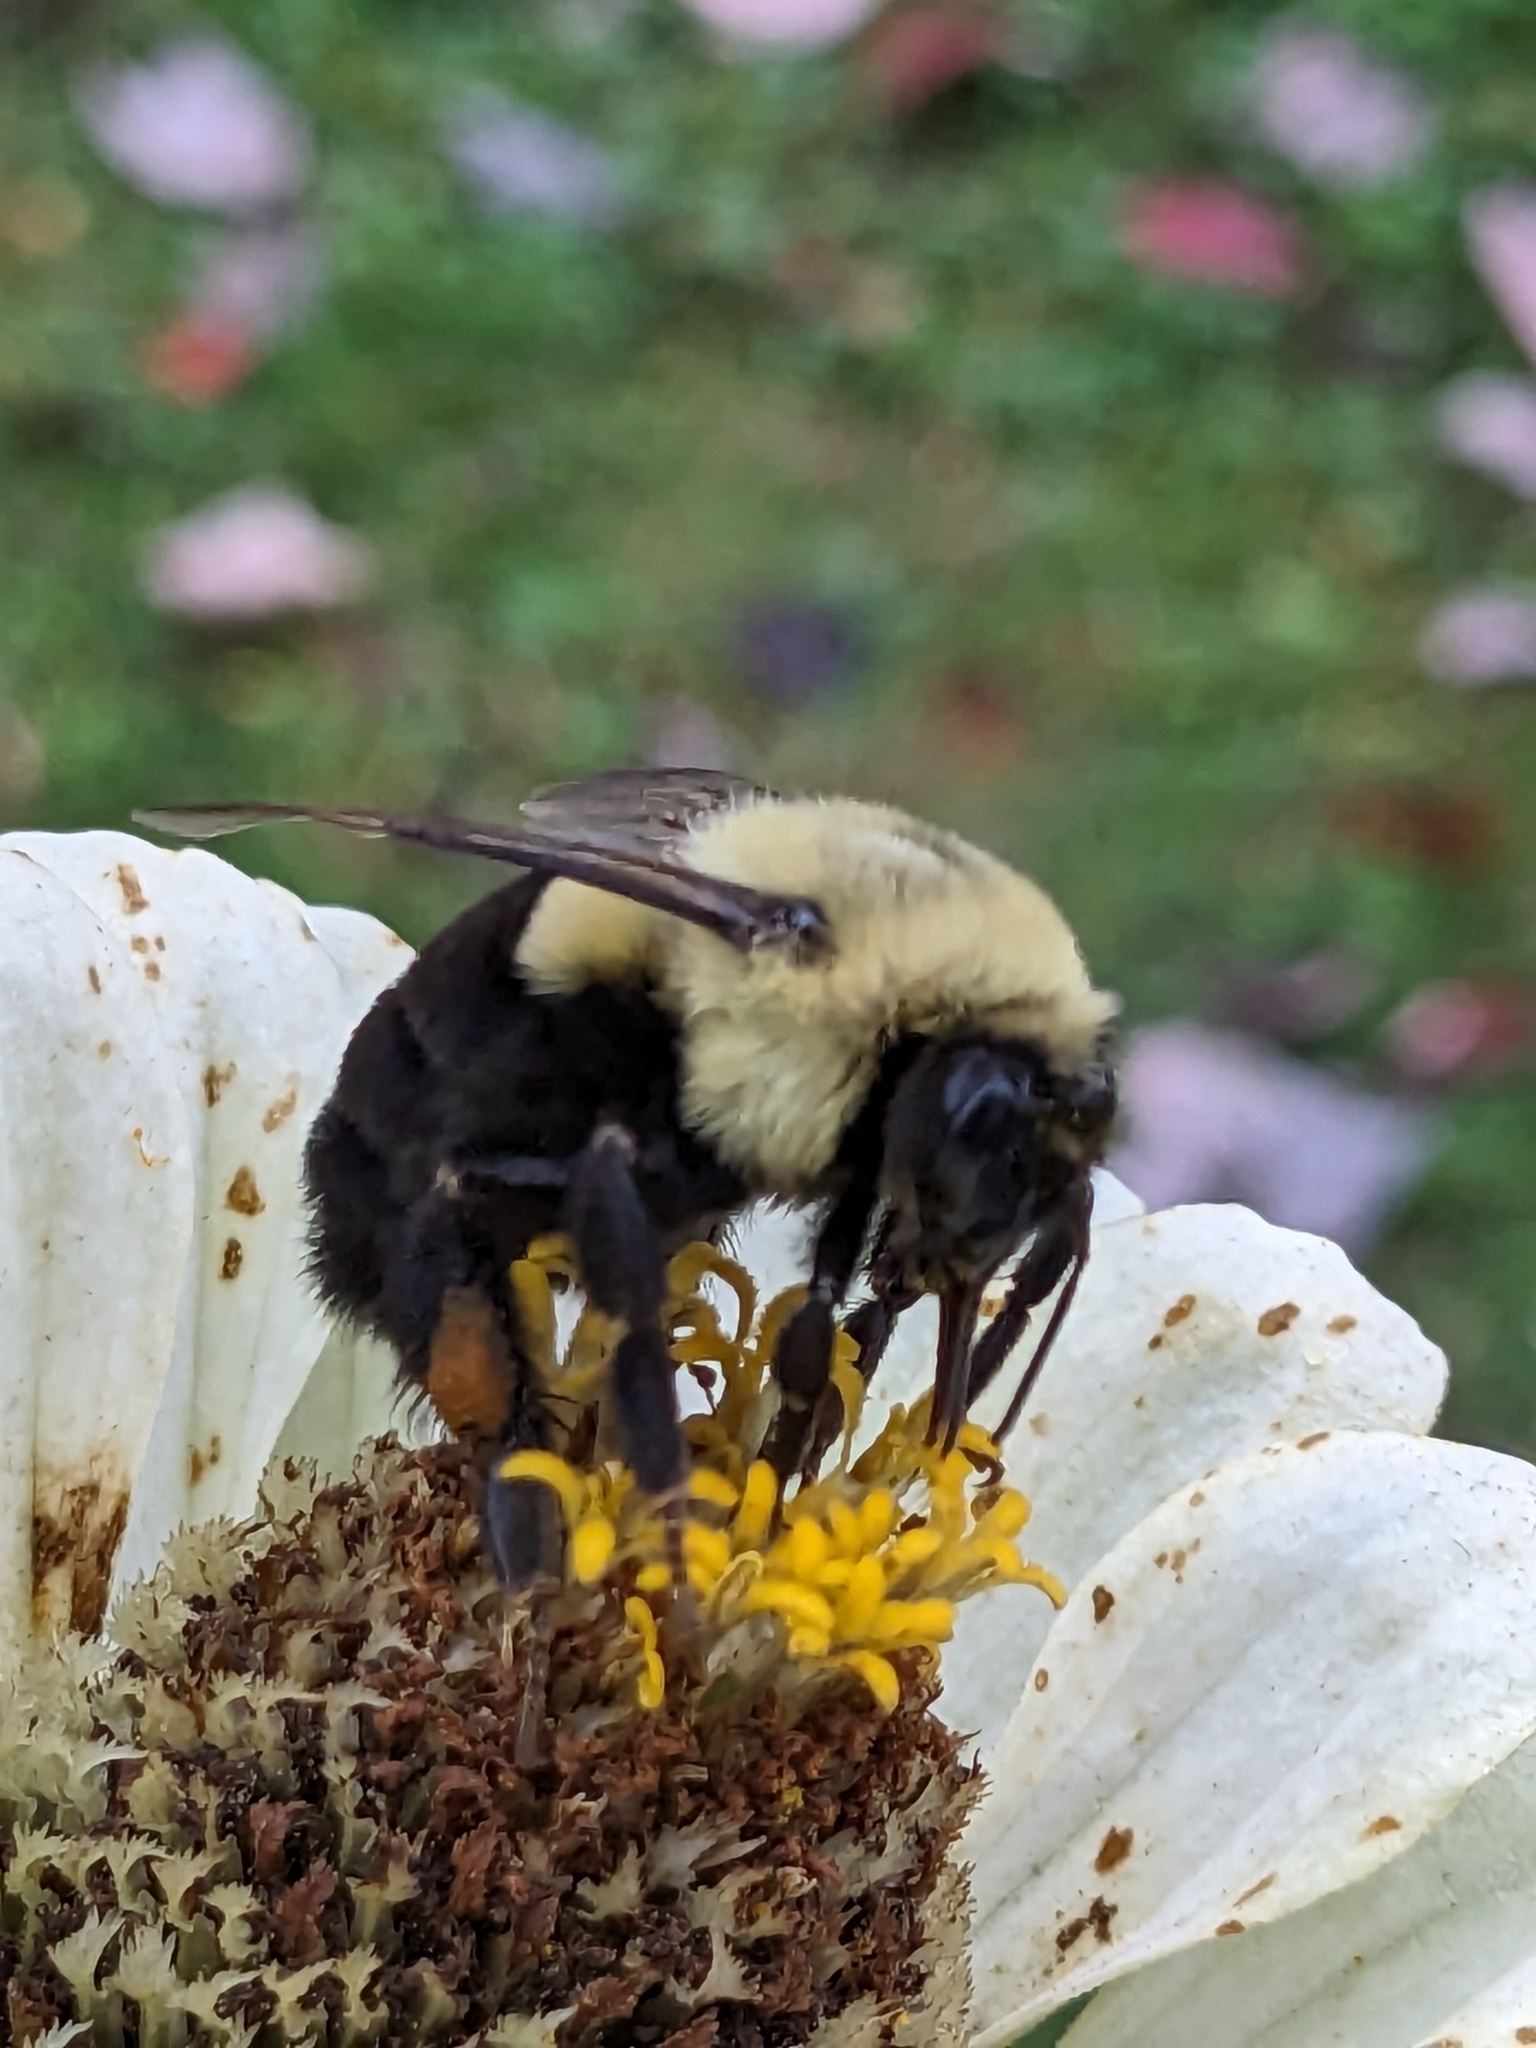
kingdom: Animalia
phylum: Arthropoda
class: Insecta
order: Hymenoptera
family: Apidae
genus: Bombus
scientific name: Bombus impatiens
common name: Common eastern bumble bee
